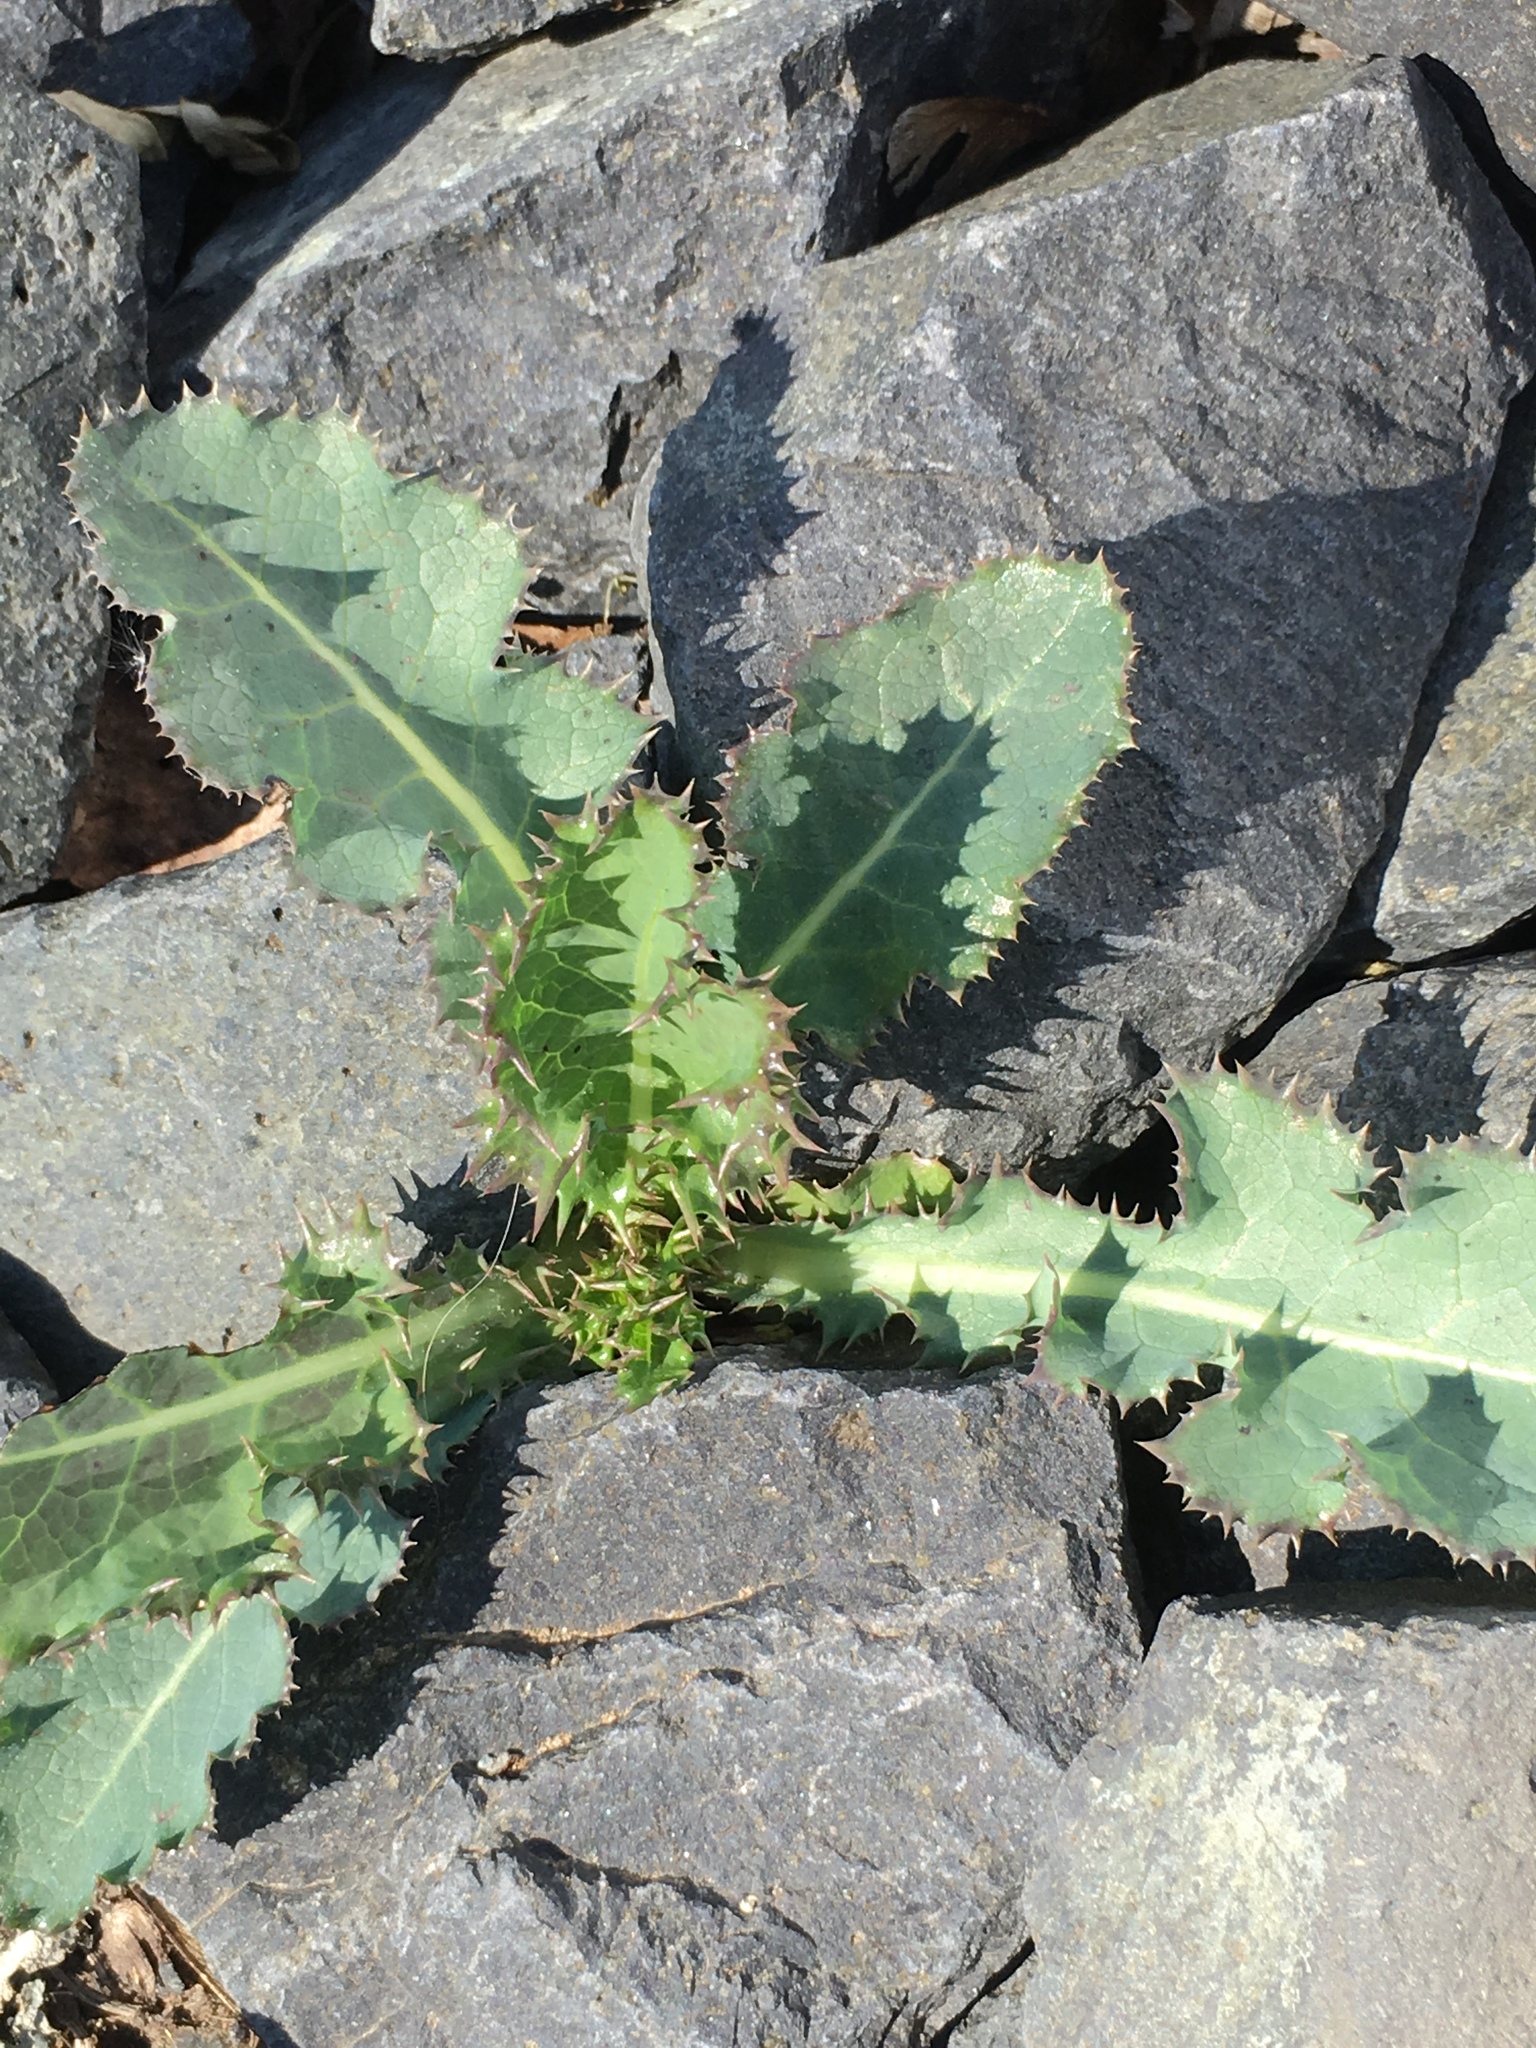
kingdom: Plantae
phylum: Tracheophyta
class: Magnoliopsida
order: Asterales
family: Asteraceae
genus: Sonchus
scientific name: Sonchus asper
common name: Prickly sow-thistle
